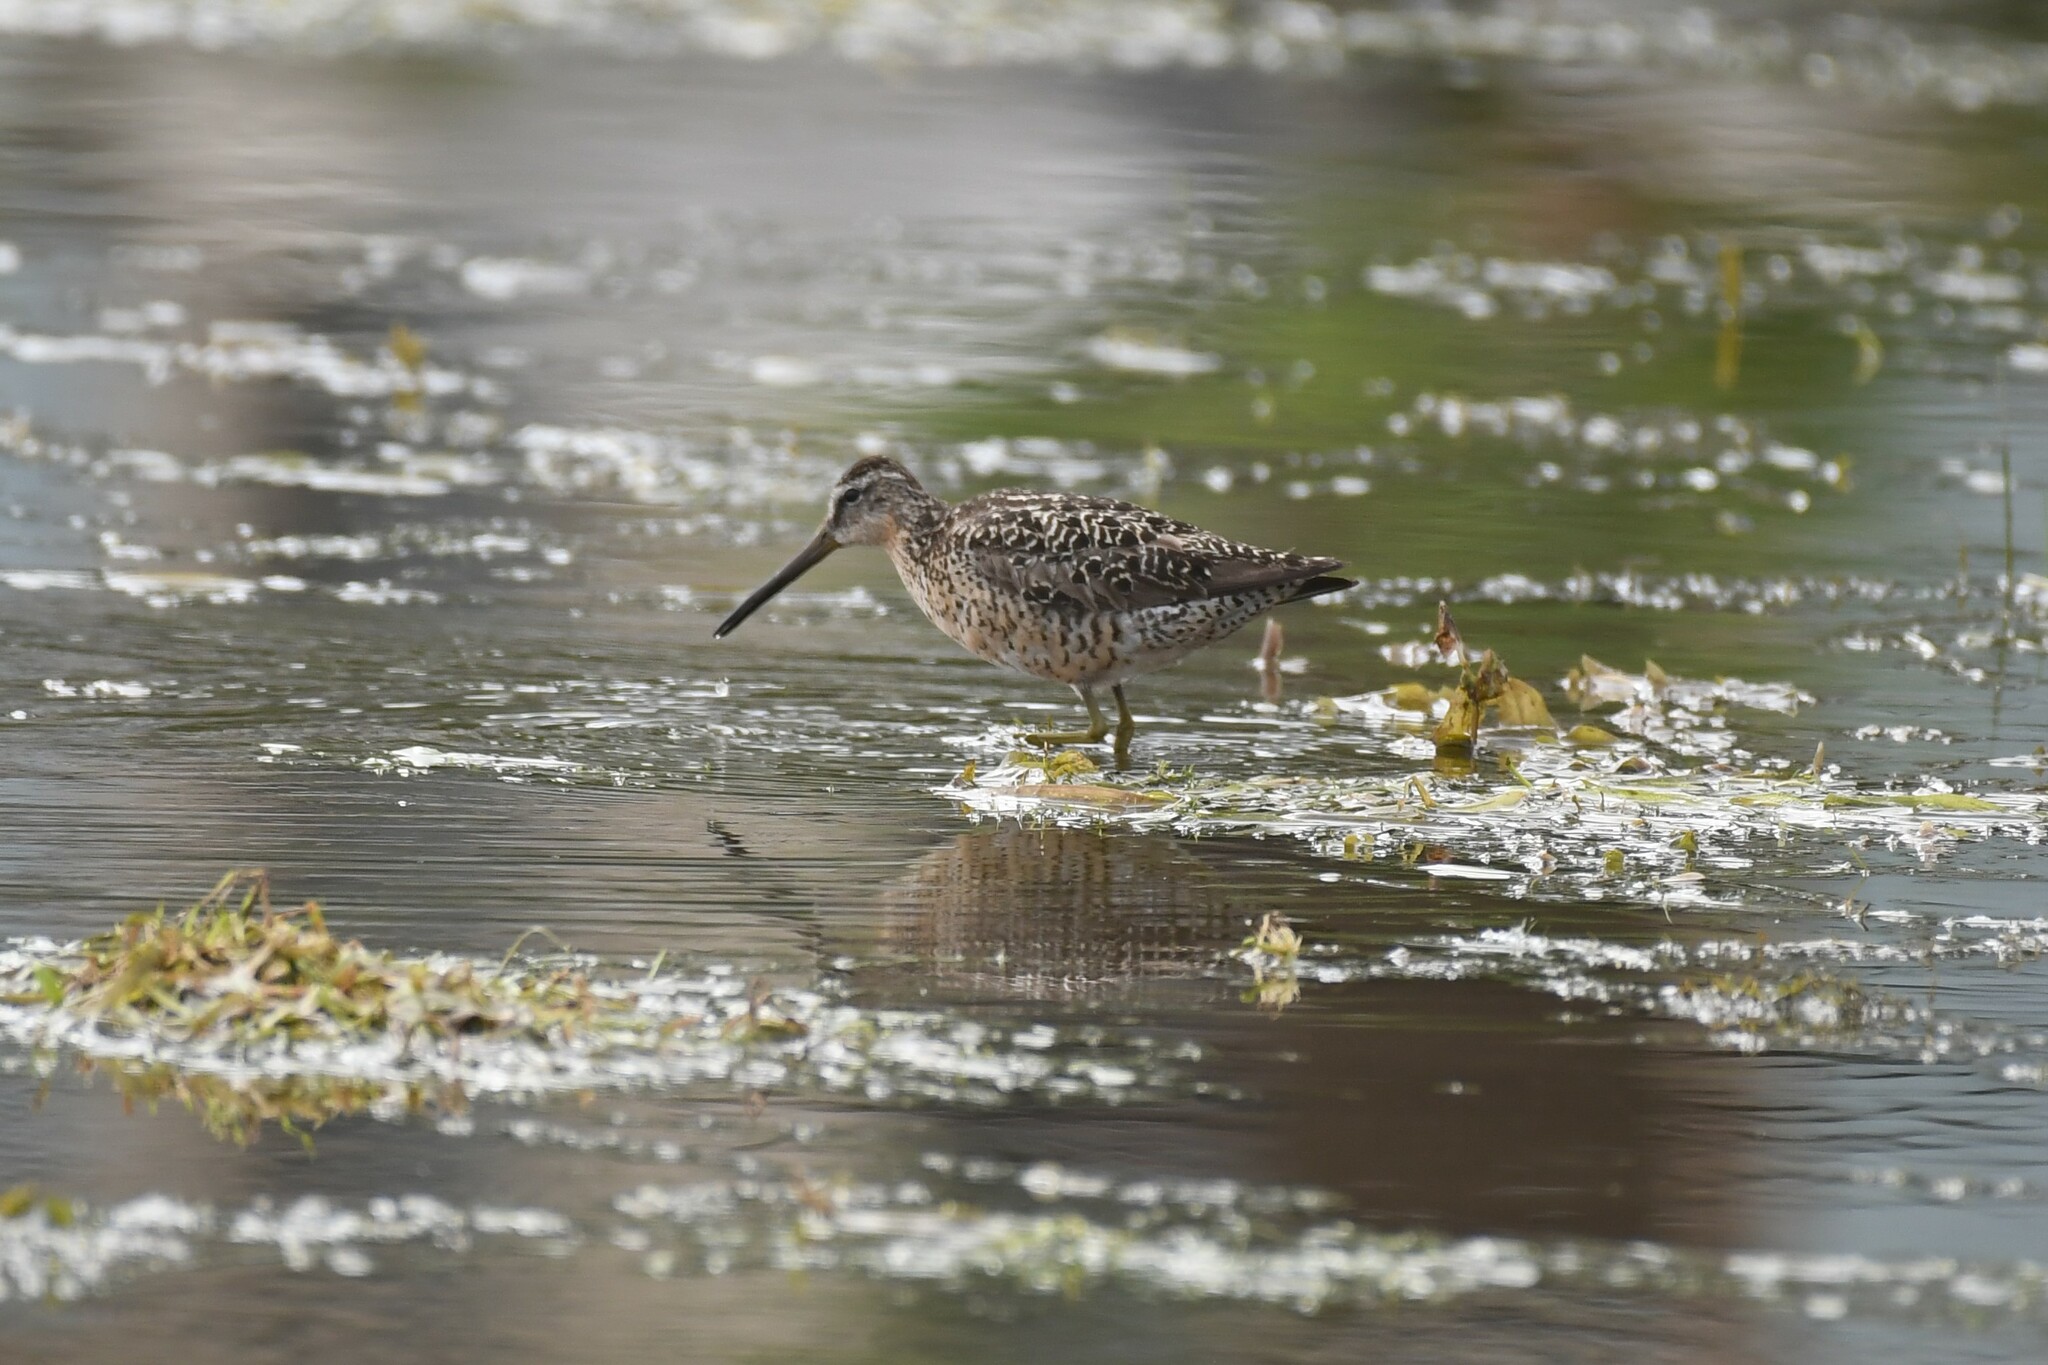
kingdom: Animalia
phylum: Chordata
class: Aves
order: Charadriiformes
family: Scolopacidae
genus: Limnodromus
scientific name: Limnodromus griseus
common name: Short-billed dowitcher
